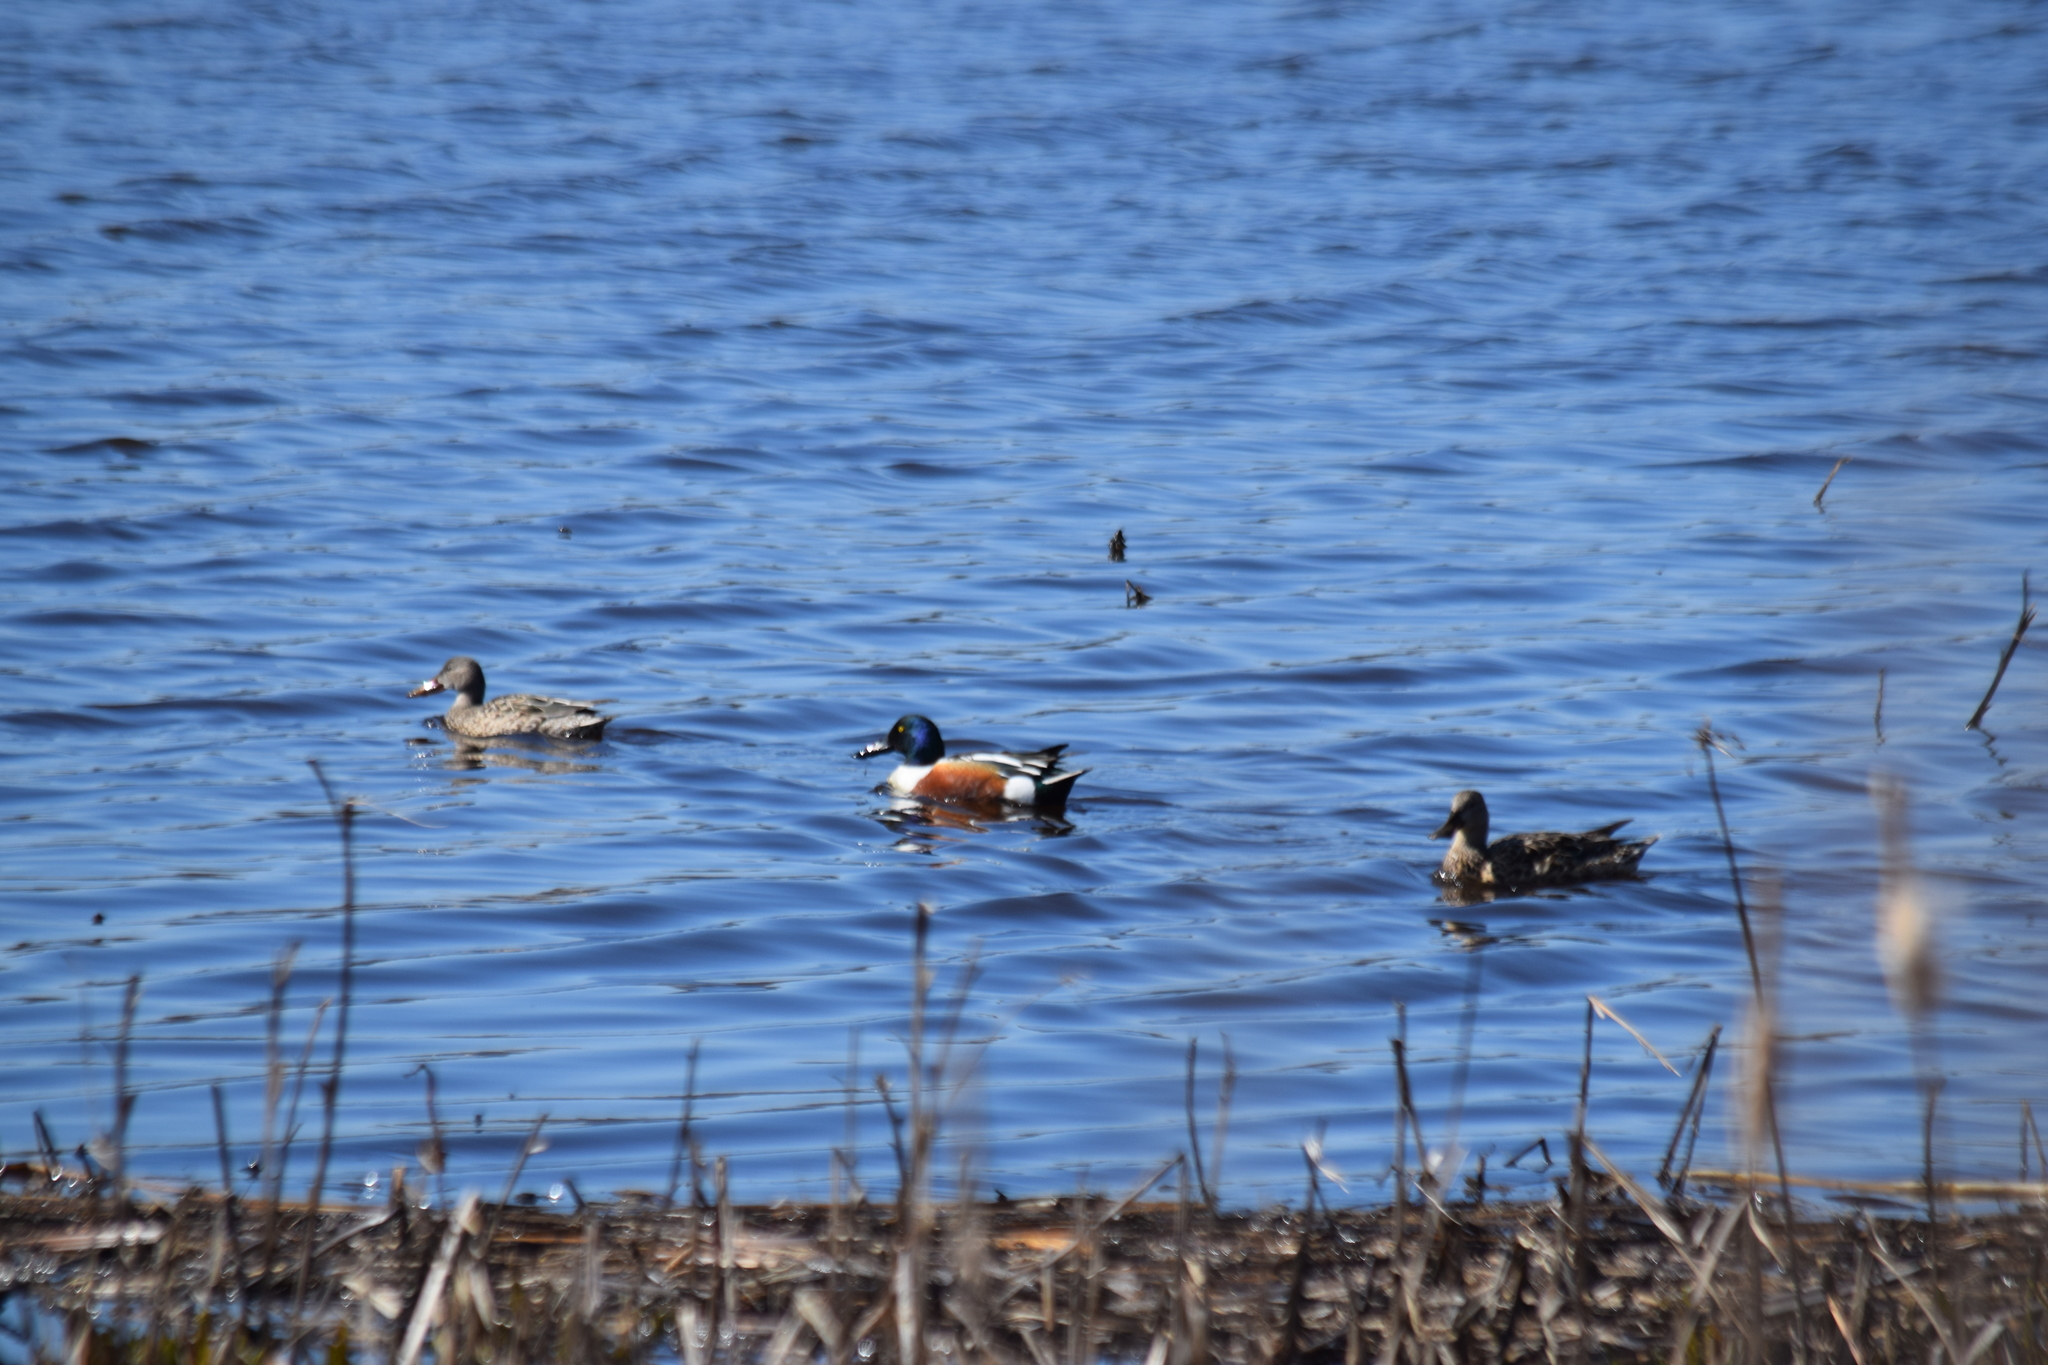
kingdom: Animalia
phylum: Chordata
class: Aves
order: Anseriformes
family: Anatidae
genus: Spatula
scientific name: Spatula clypeata
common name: Northern shoveler
